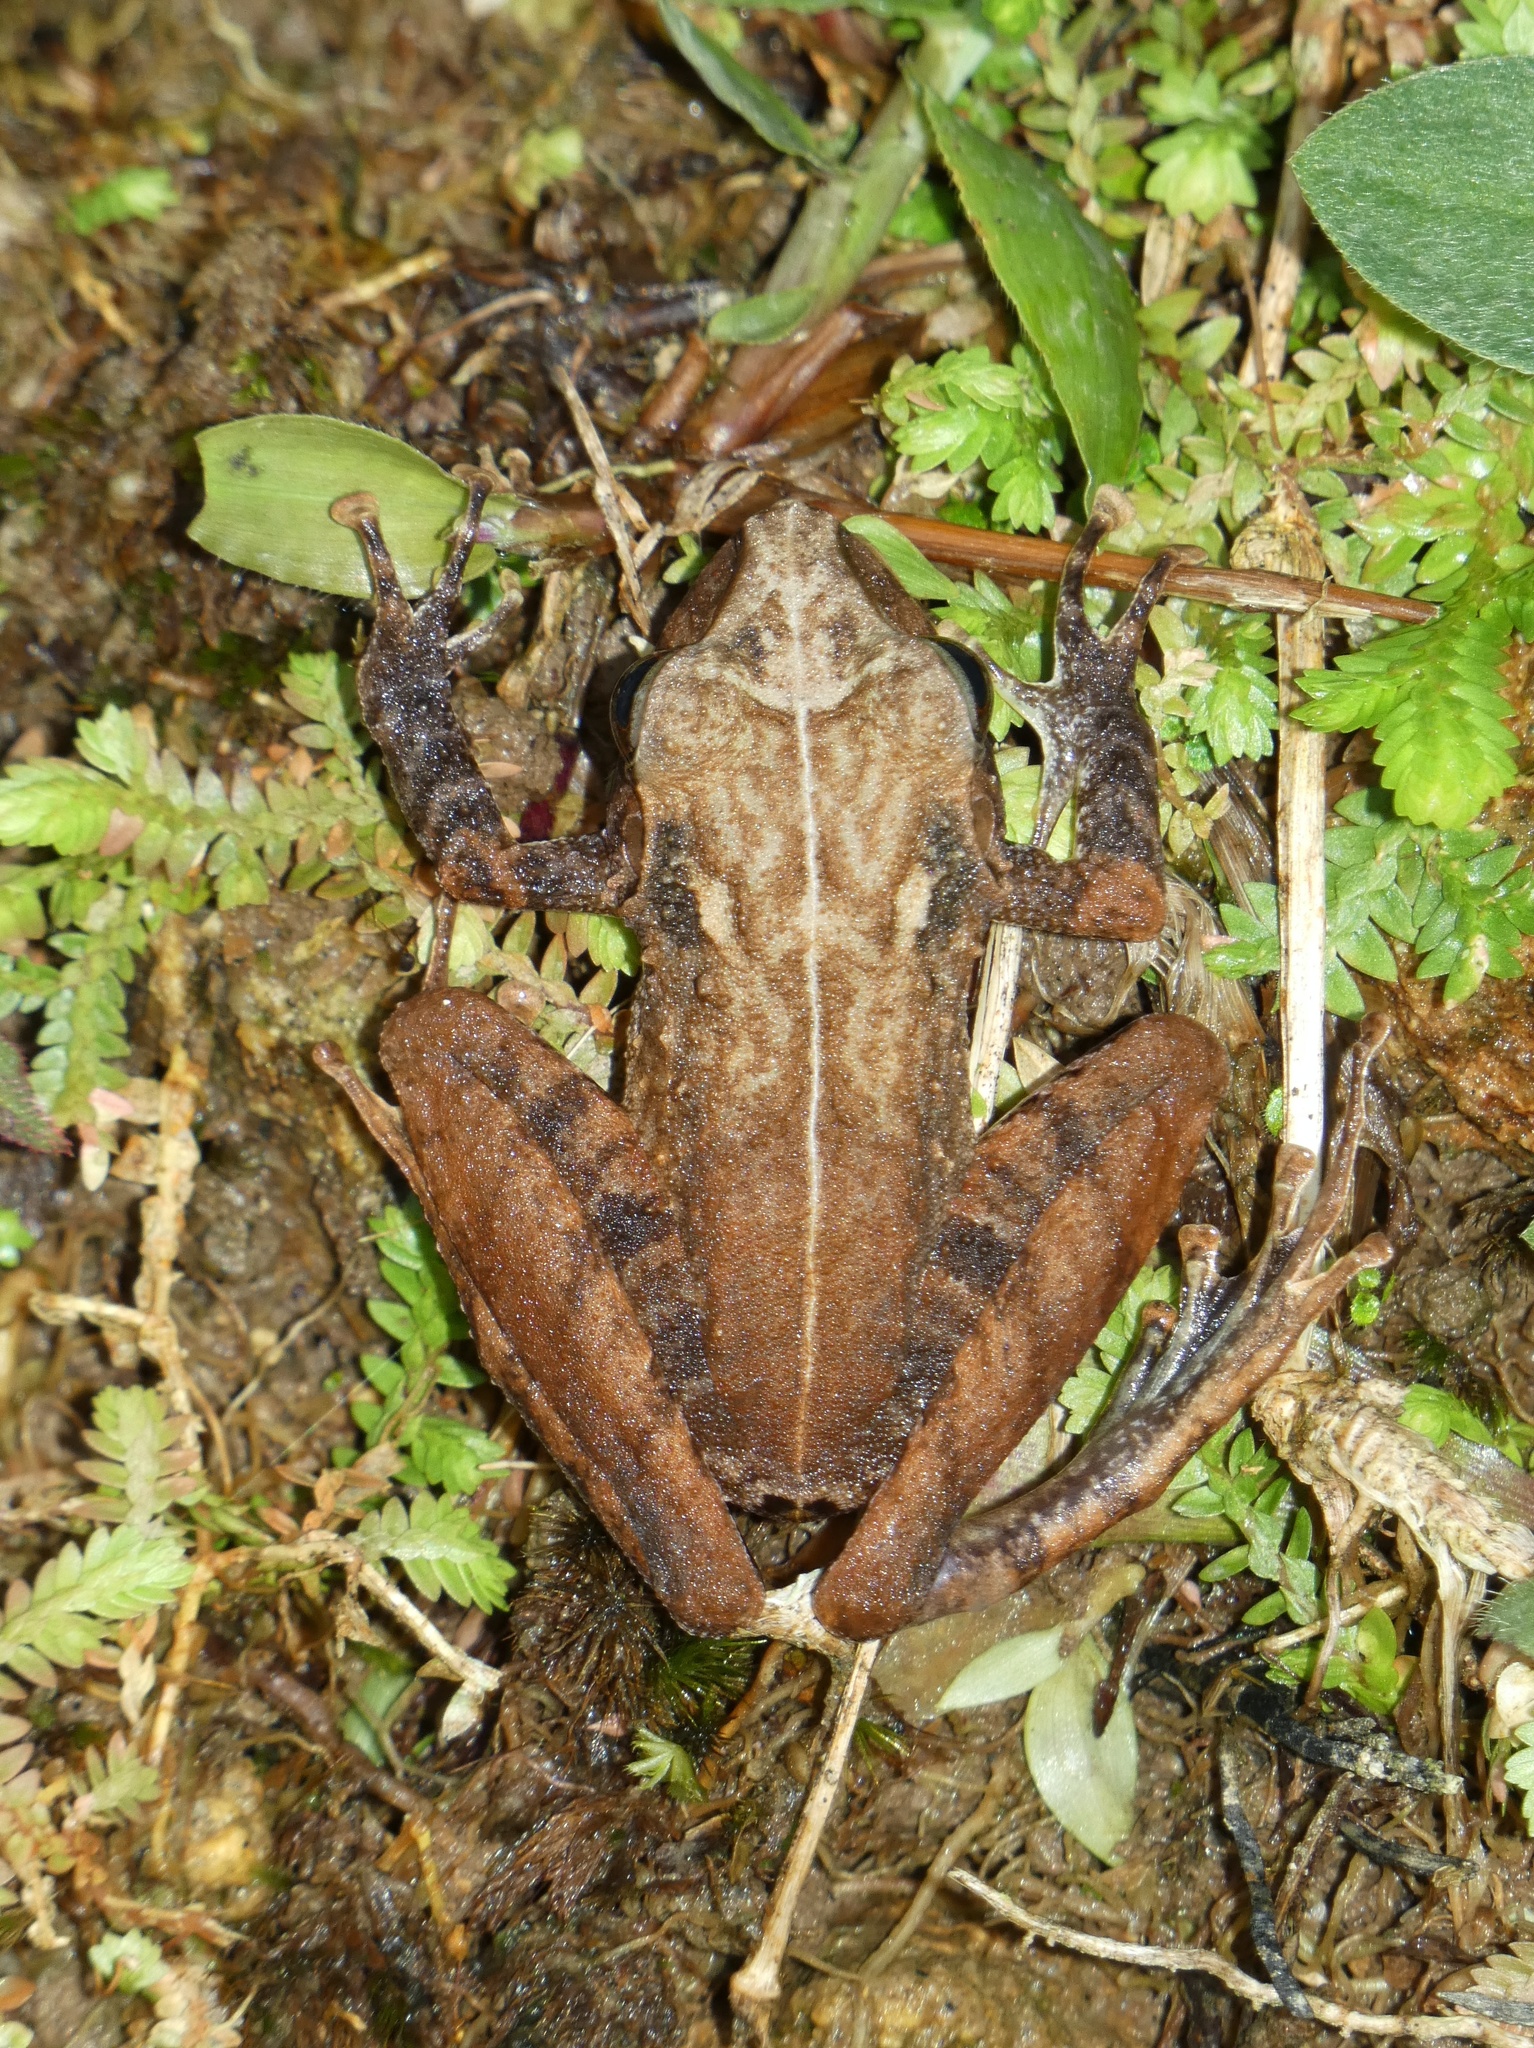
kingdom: Animalia
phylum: Chordata
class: Amphibia
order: Anura
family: Craugastoridae
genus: Craugastor
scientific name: Craugastor fitzingeri
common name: Fitzinger's robber frog
